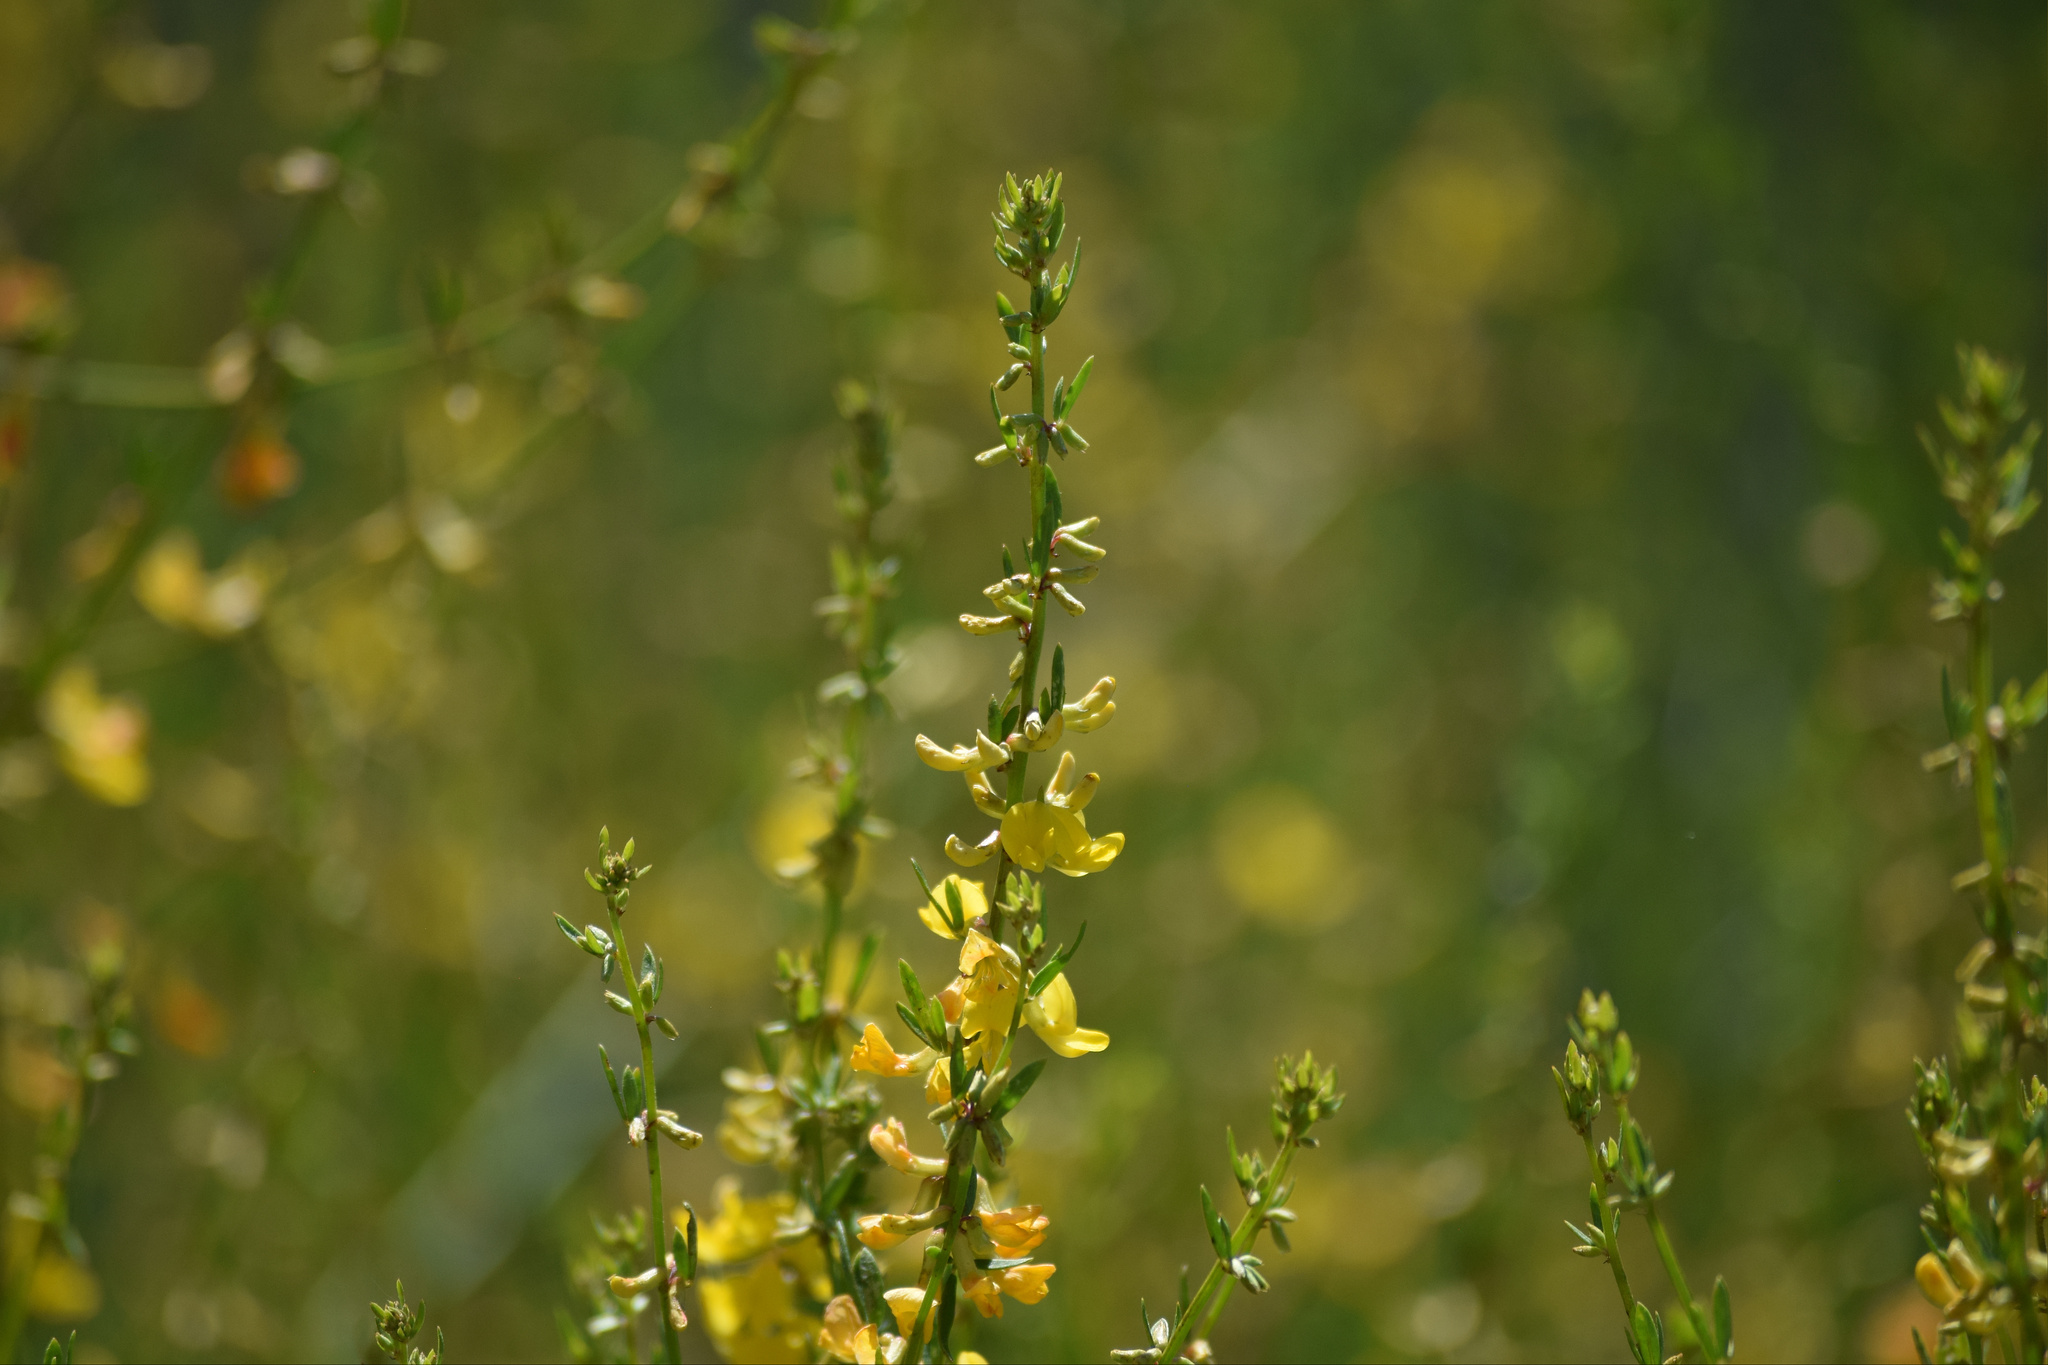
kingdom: Plantae
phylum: Tracheophyta
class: Magnoliopsida
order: Fabales
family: Fabaceae
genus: Acmispon
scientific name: Acmispon glaber
